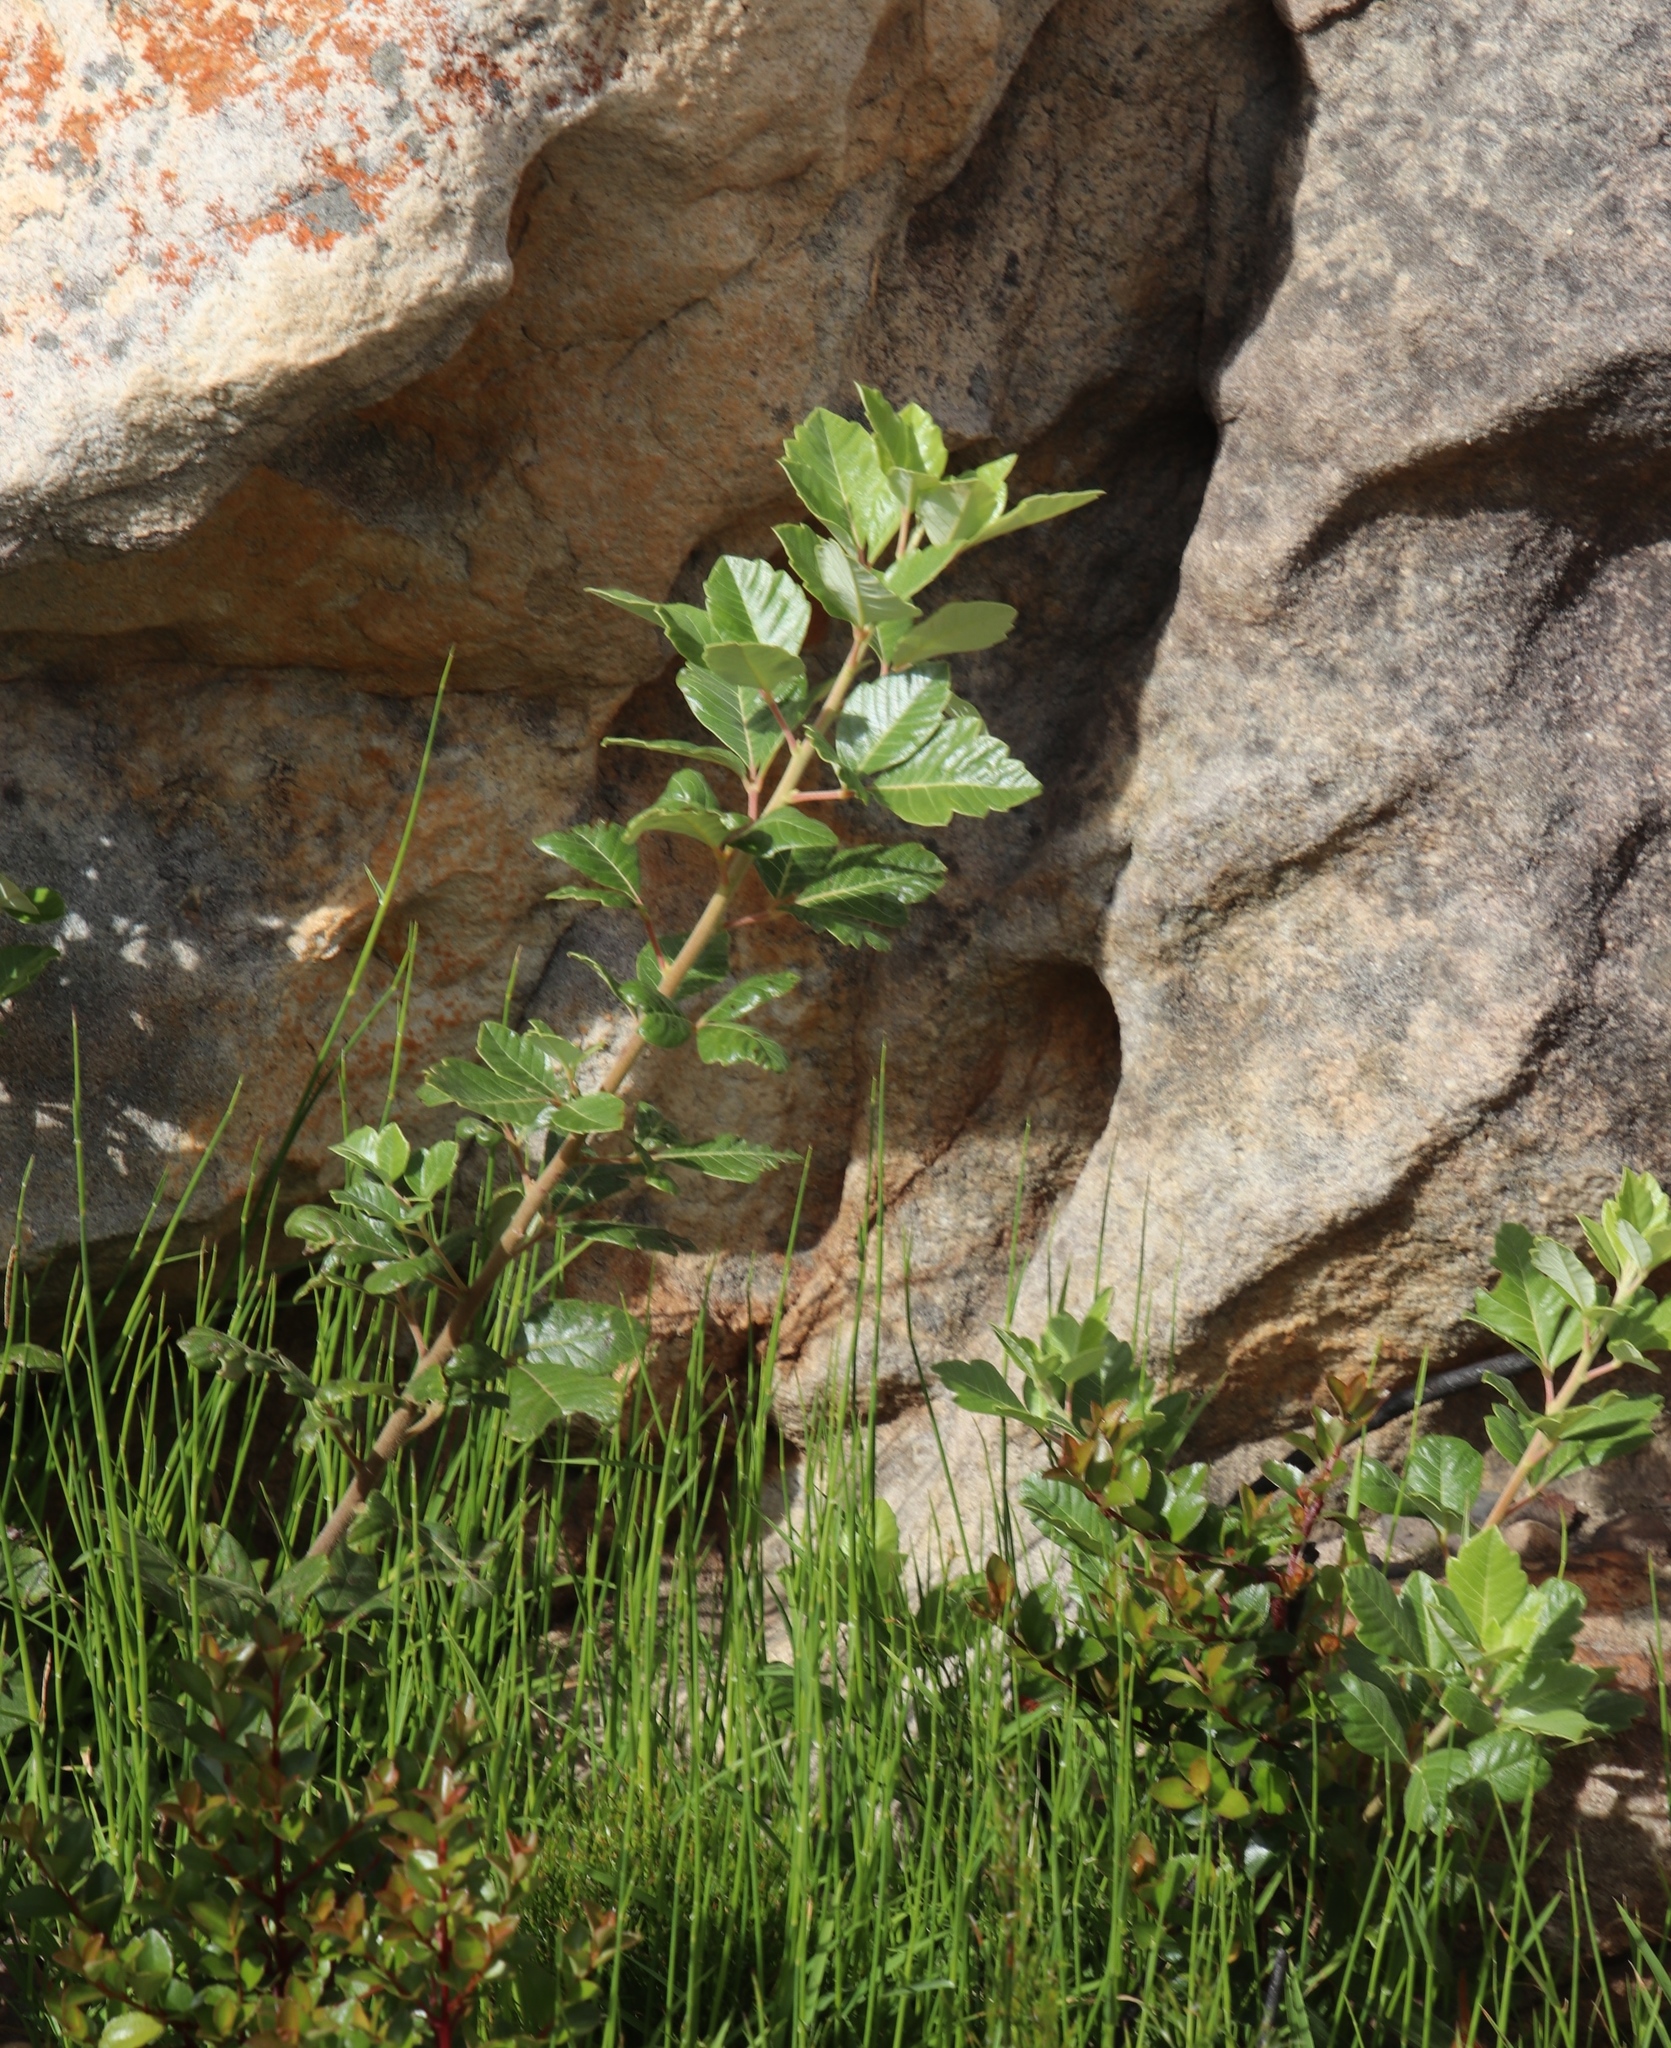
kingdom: Plantae
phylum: Tracheophyta
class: Magnoliopsida
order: Sapindales
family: Anacardiaceae
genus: Searsia
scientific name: Searsia tomentosa
